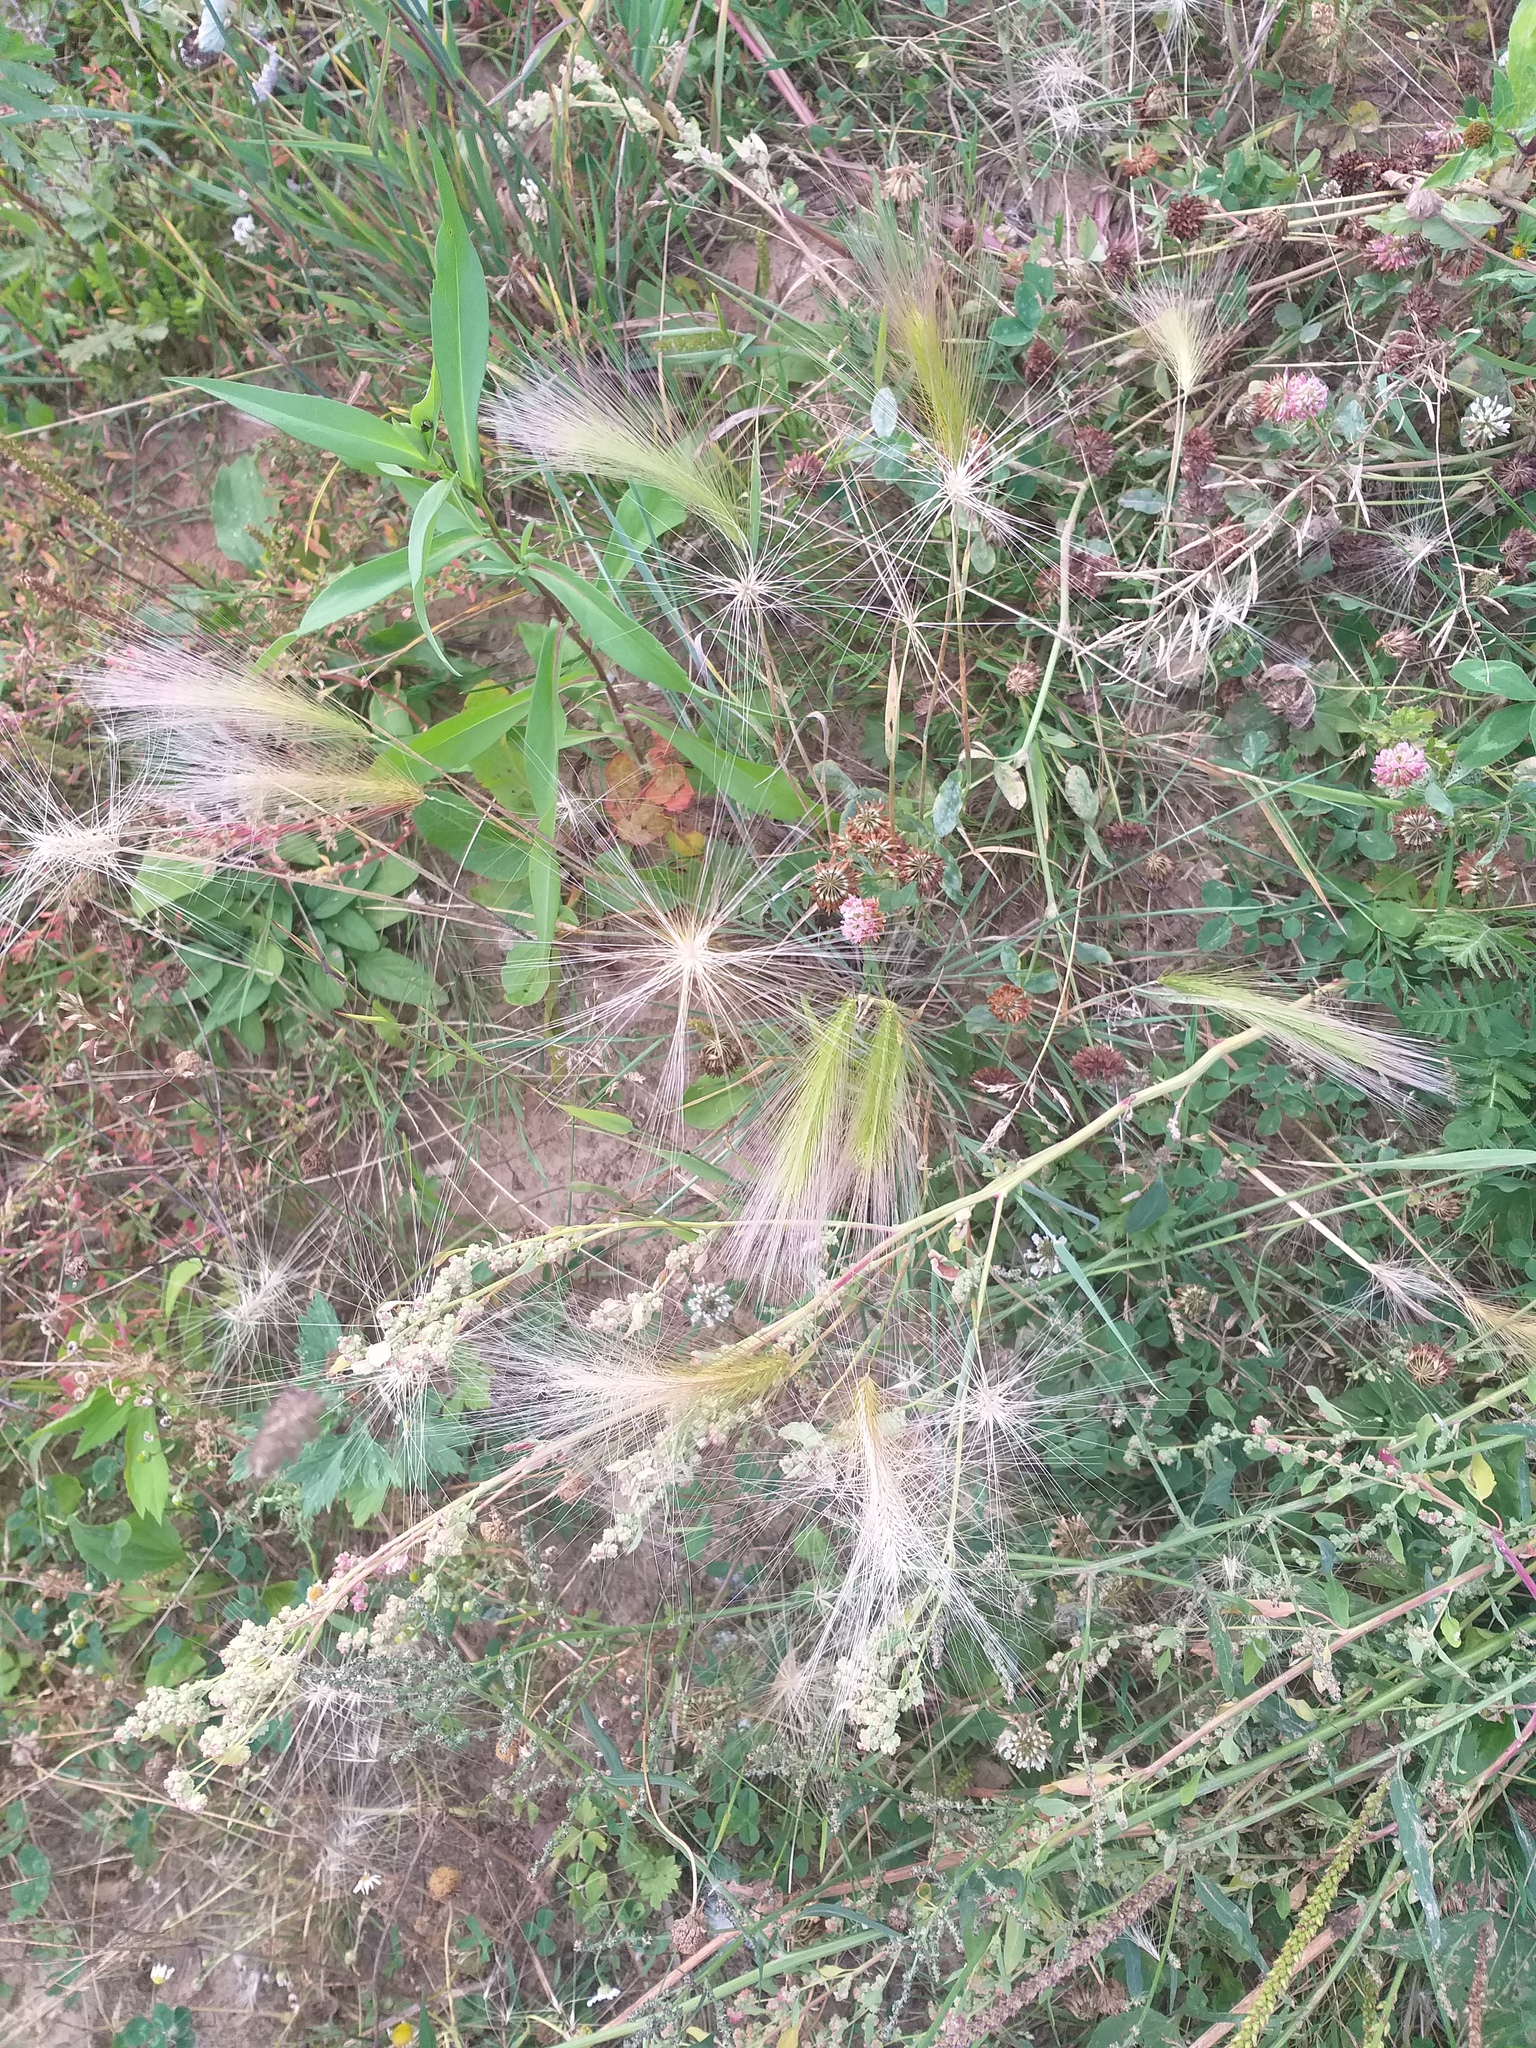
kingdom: Plantae
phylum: Tracheophyta
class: Liliopsida
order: Poales
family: Poaceae
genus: Hordeum
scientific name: Hordeum jubatum
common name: Foxtail barley
